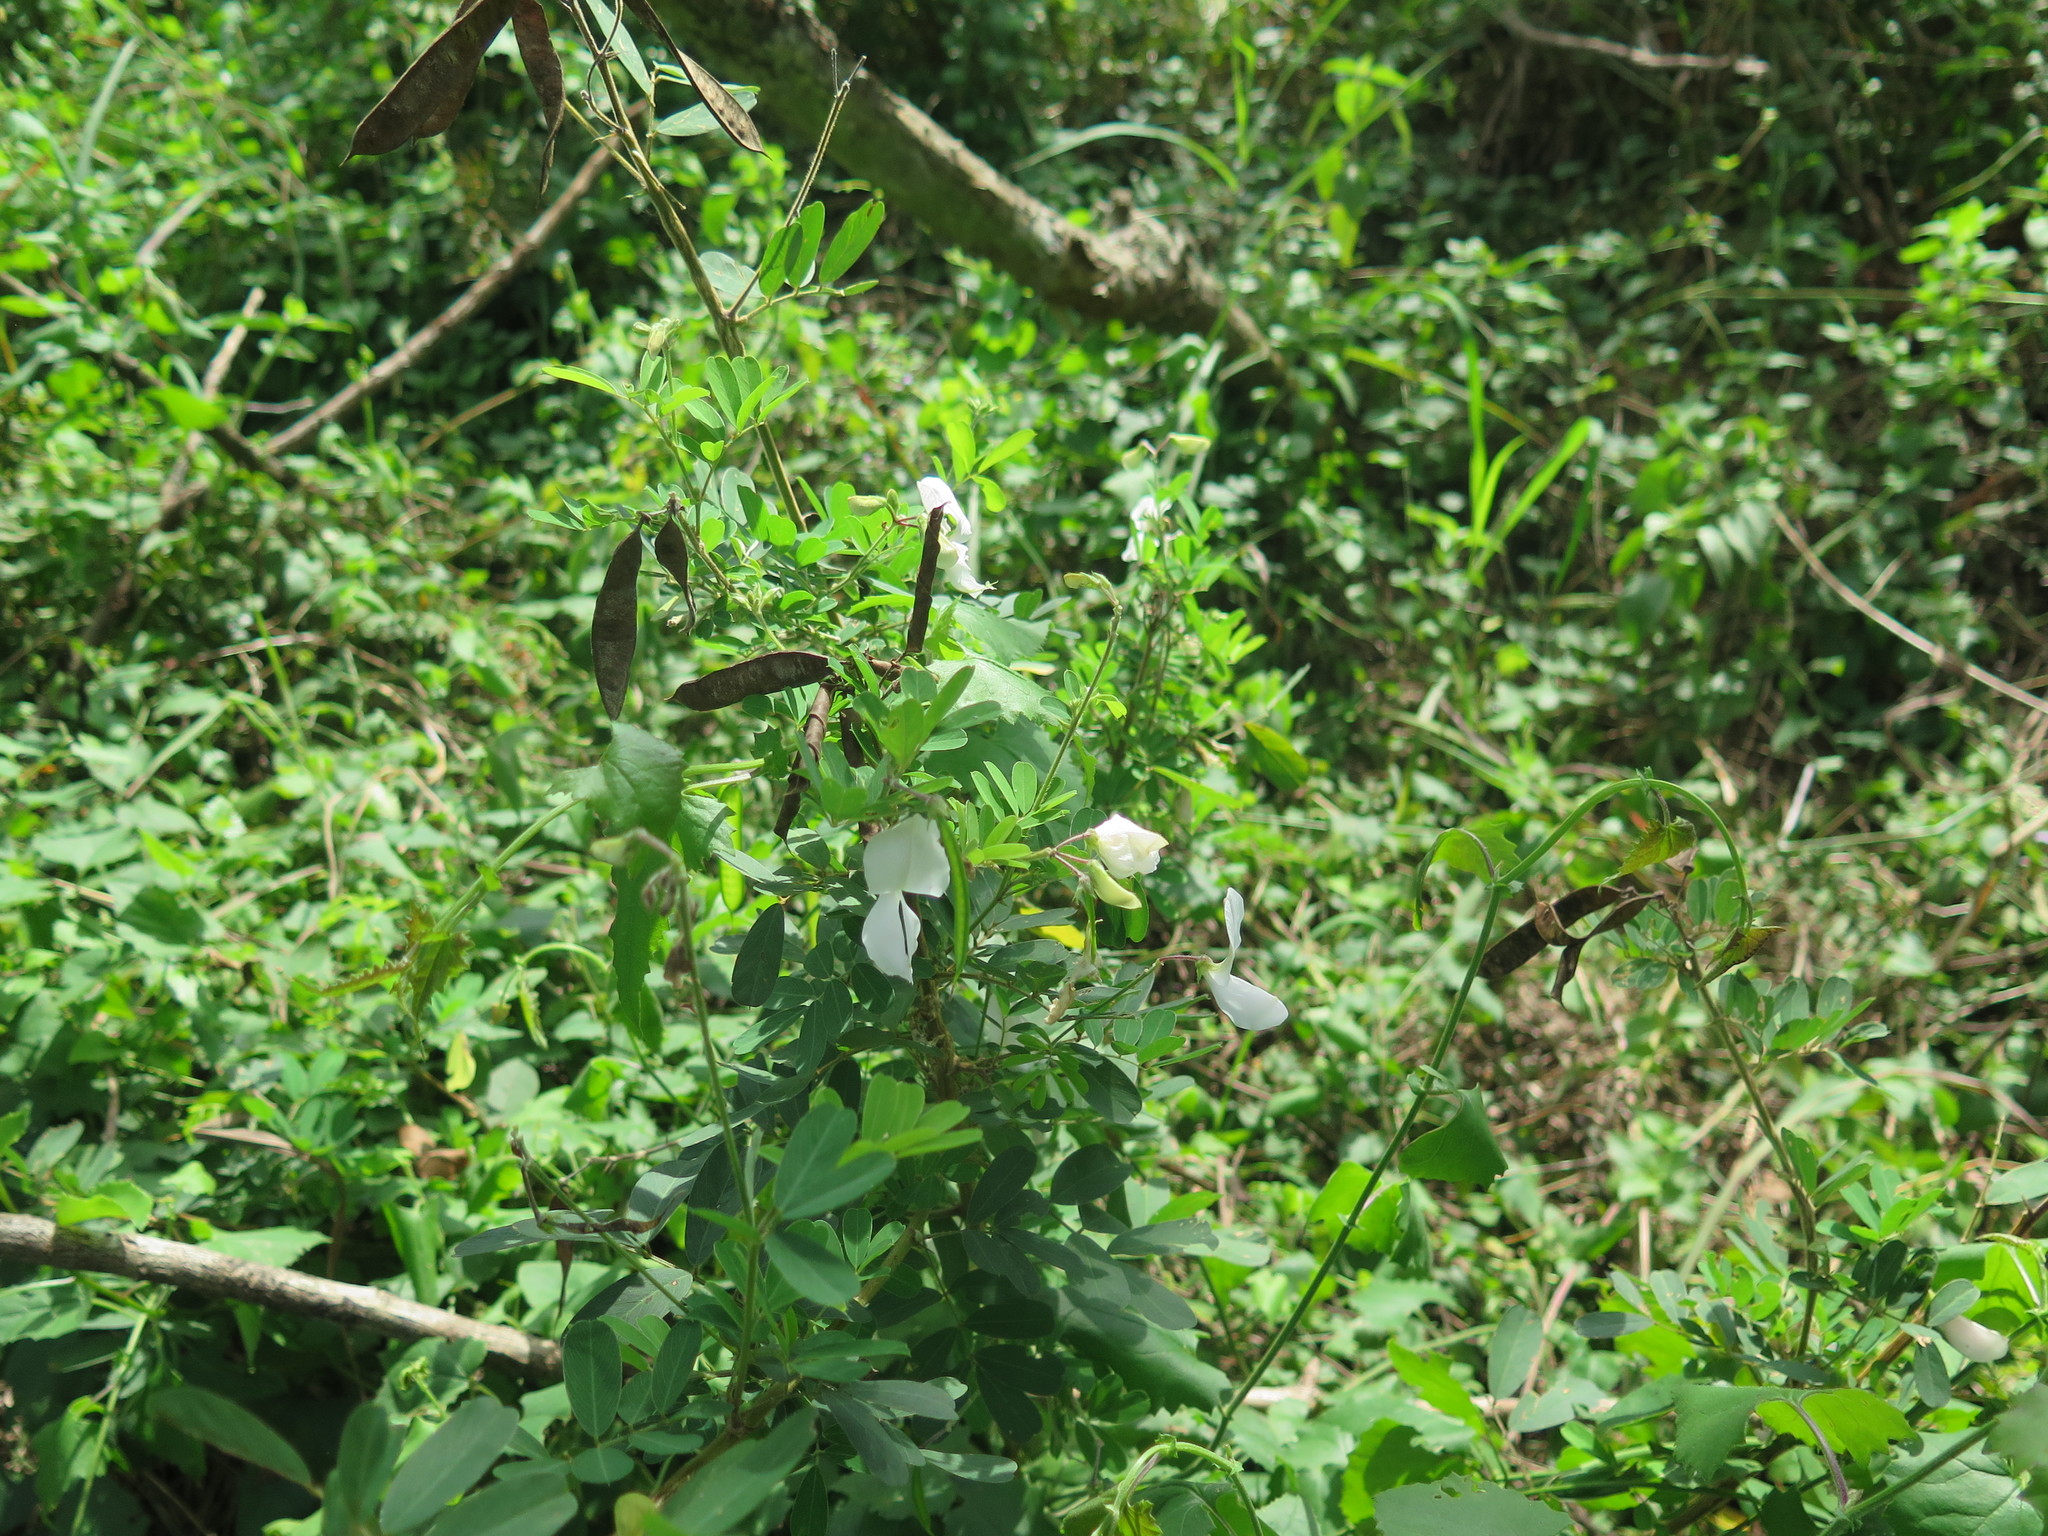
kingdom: Plantae
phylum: Tracheophyta
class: Magnoliopsida
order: Fabales
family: Fabaceae
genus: Tephrosia
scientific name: Tephrosia inandensis
